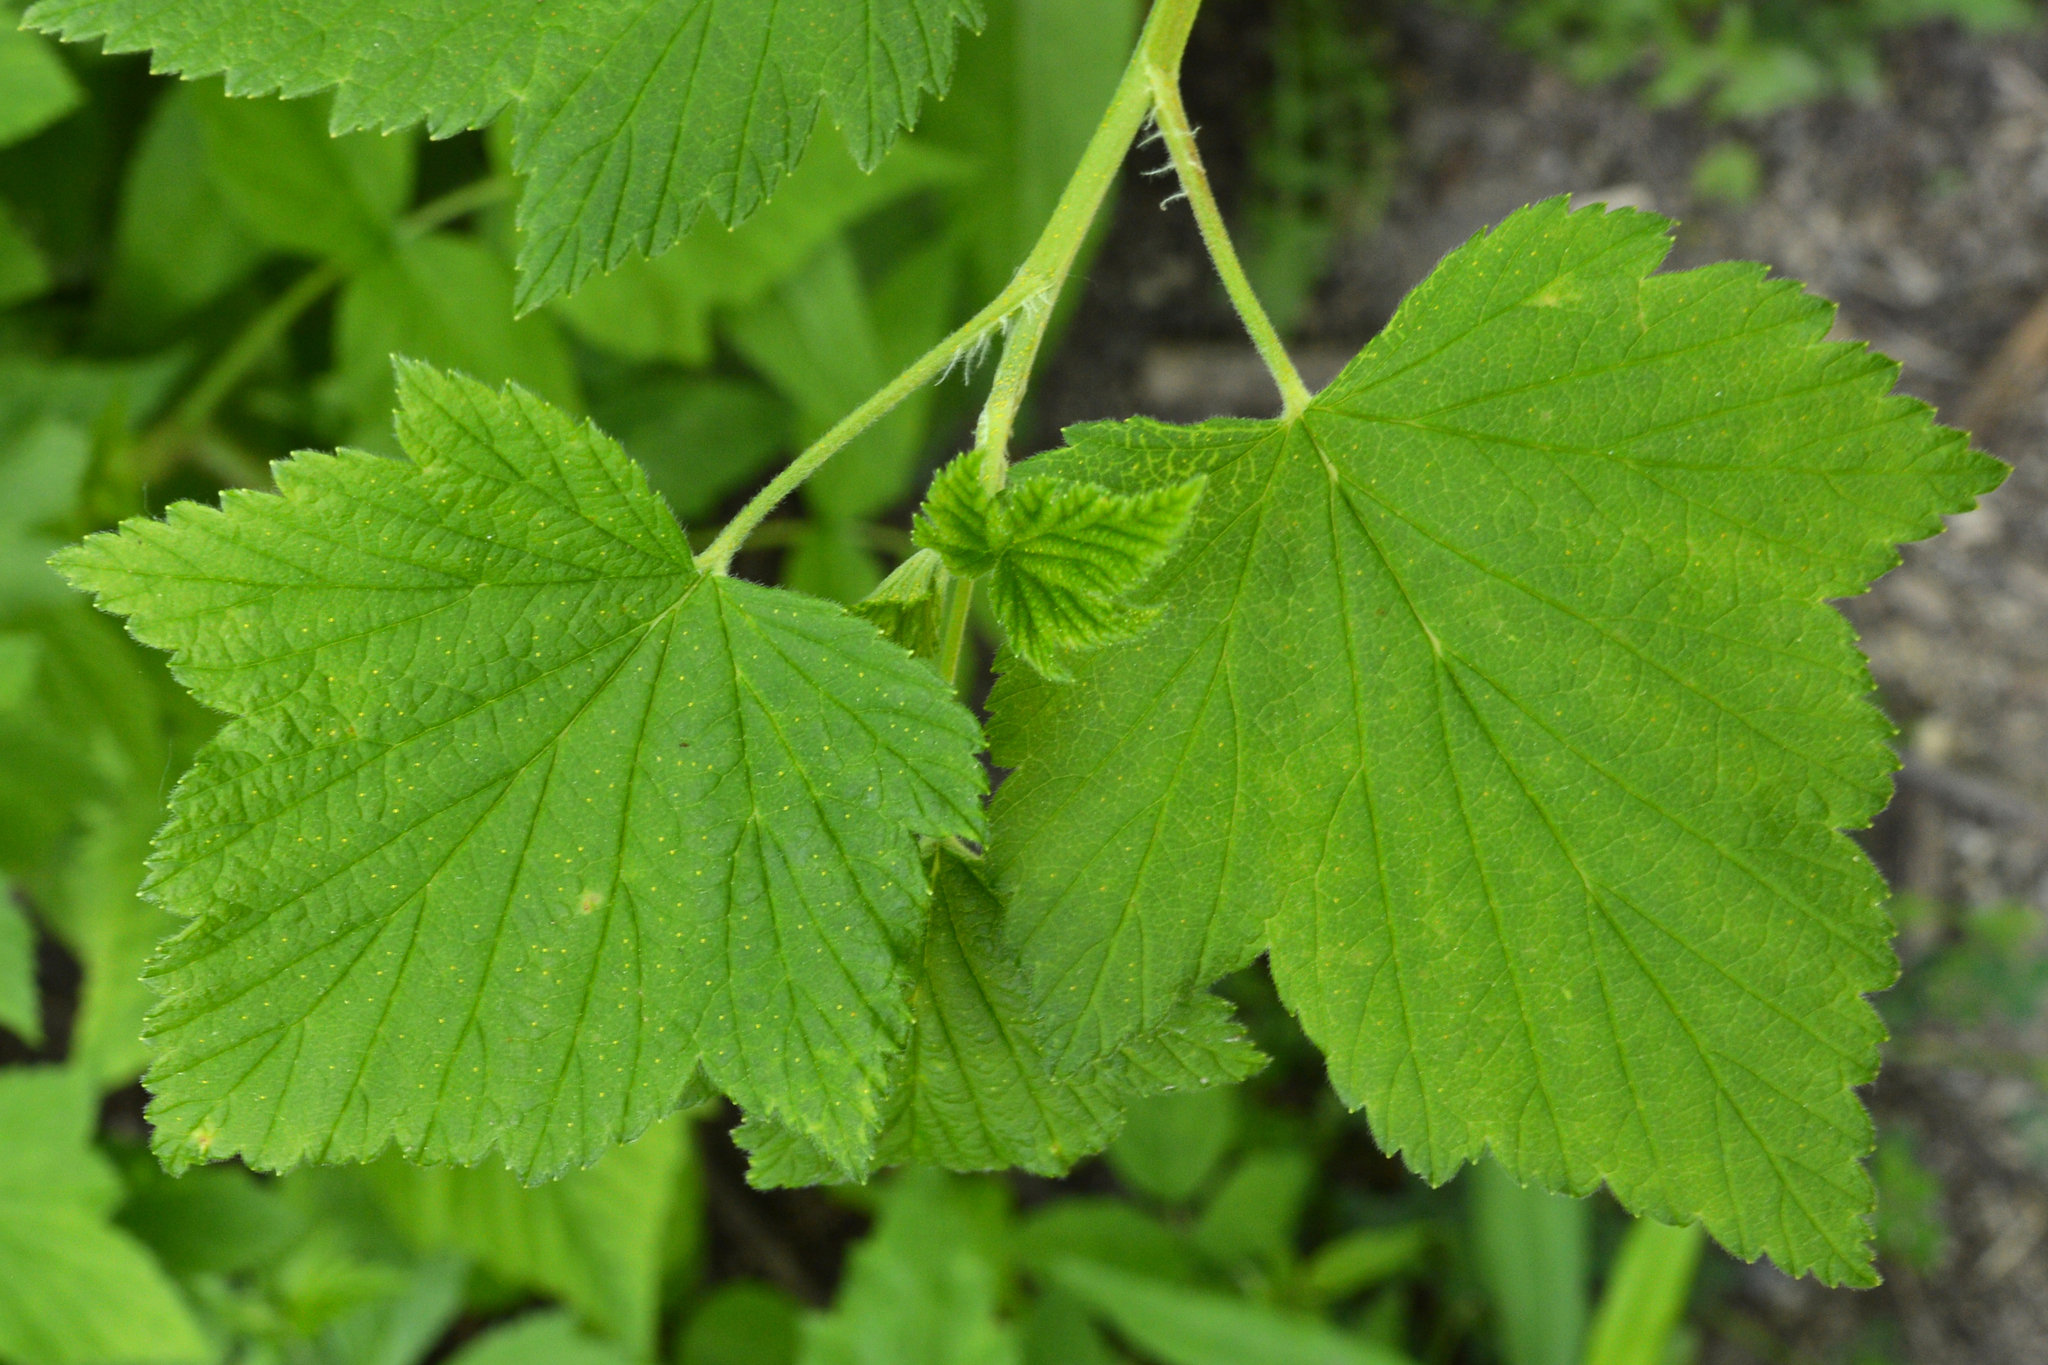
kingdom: Plantae
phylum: Tracheophyta
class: Magnoliopsida
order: Saxifragales
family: Grossulariaceae
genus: Ribes
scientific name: Ribes americanum
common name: American black currant
